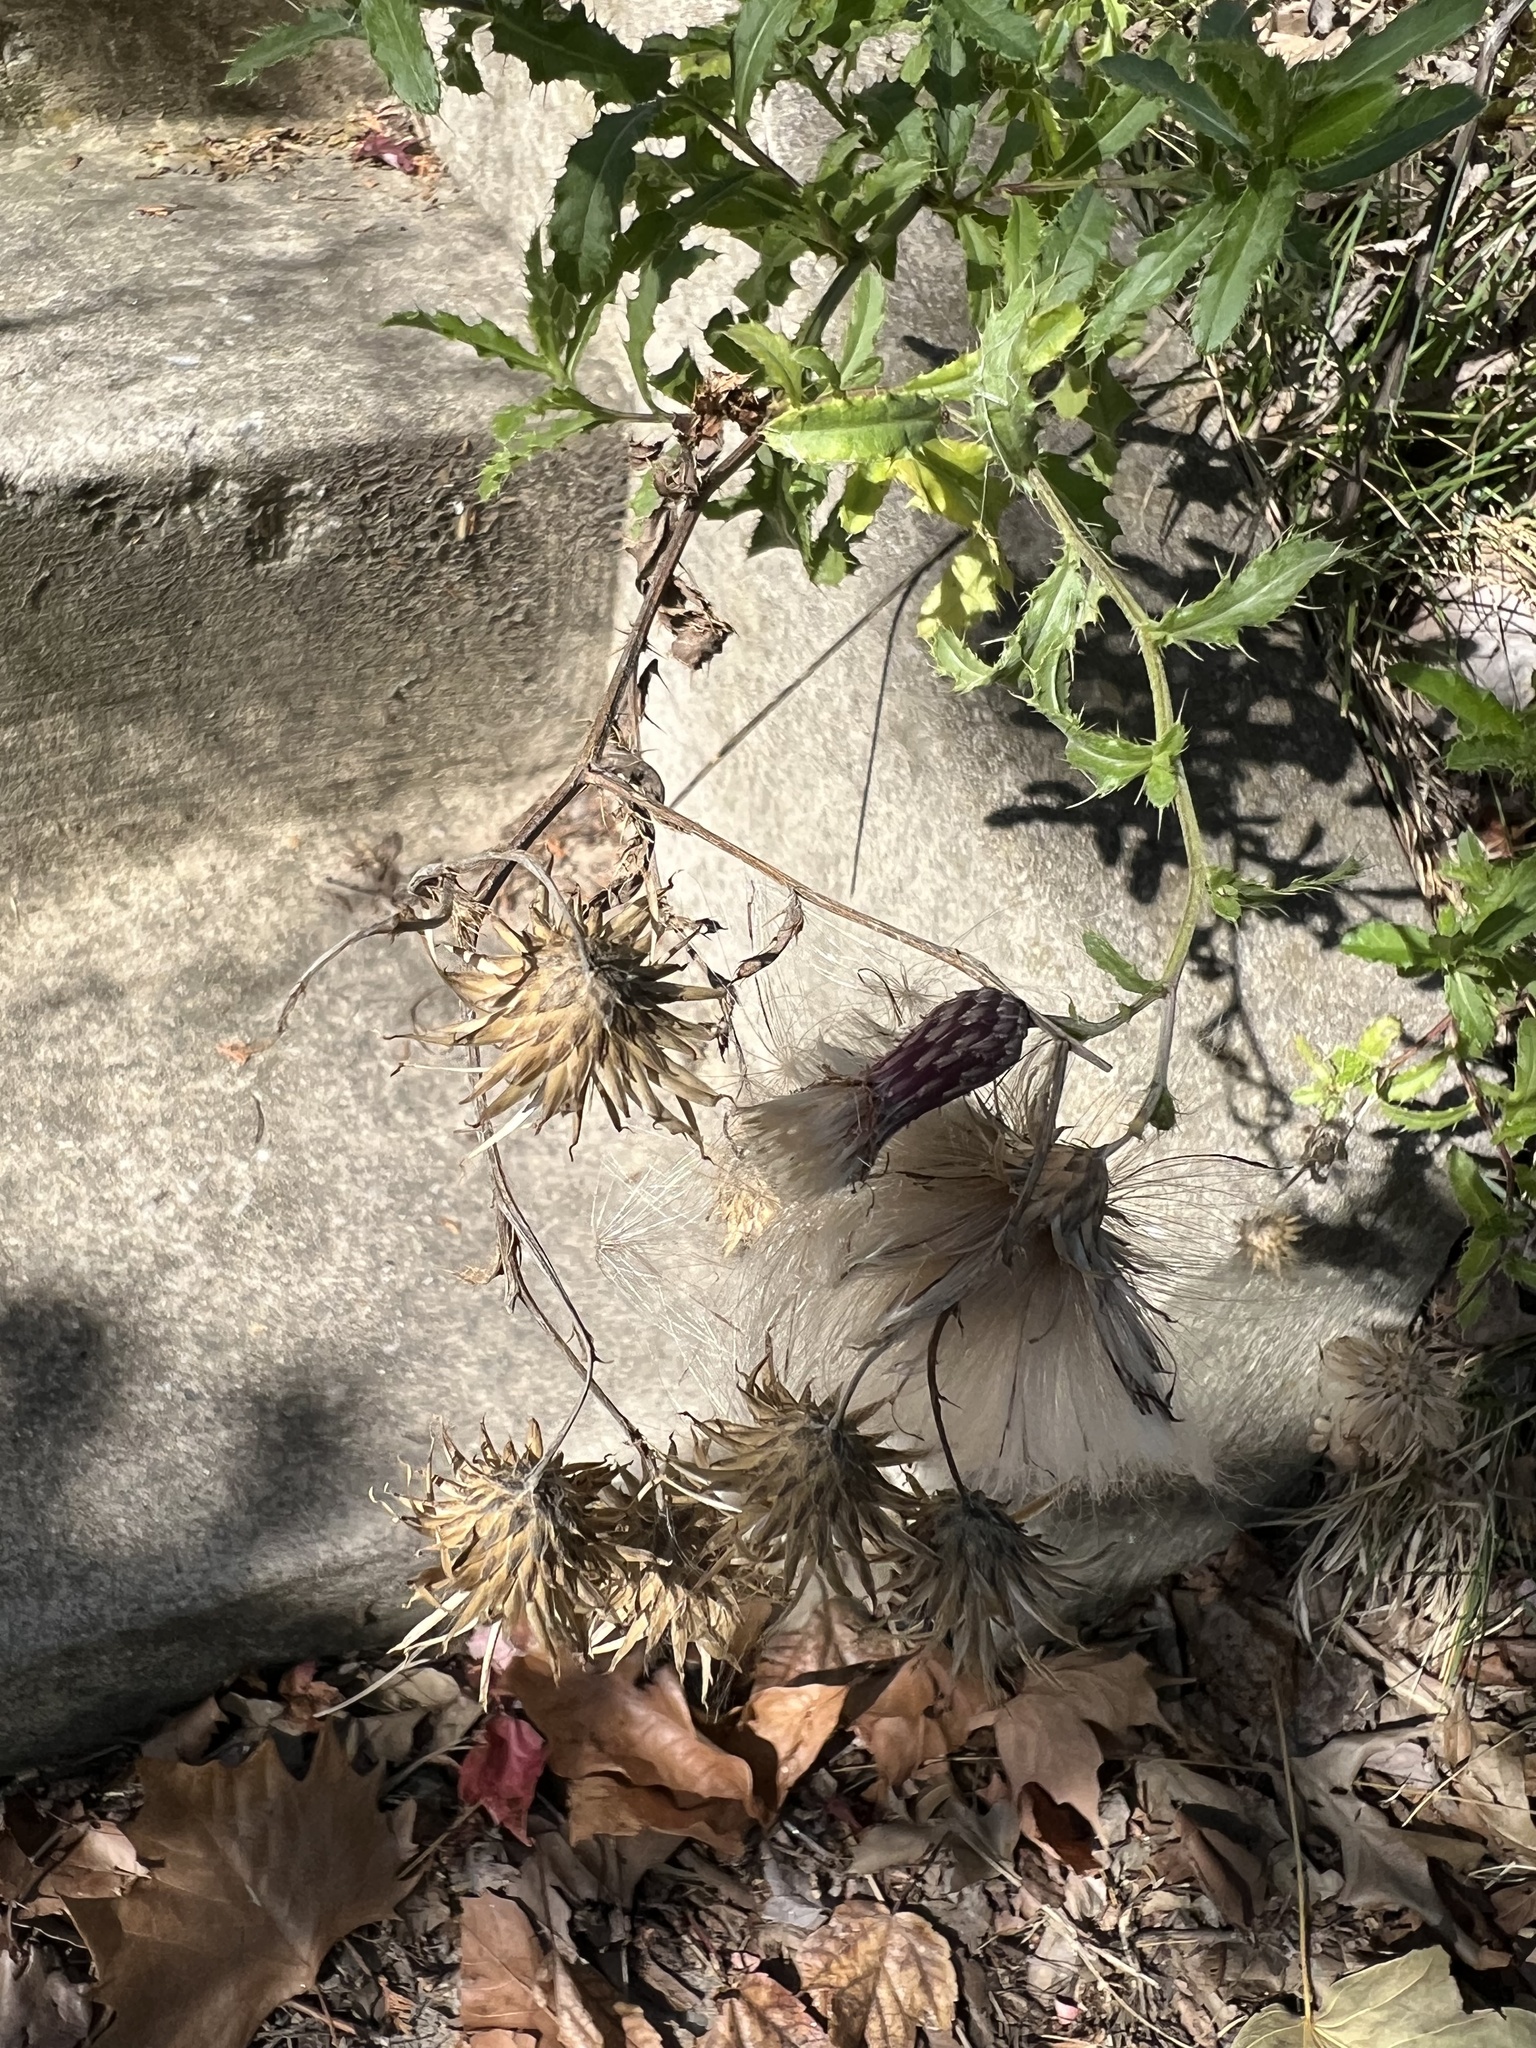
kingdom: Plantae
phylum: Tracheophyta
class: Magnoliopsida
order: Asterales
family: Asteraceae
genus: Cirsium
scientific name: Cirsium arvense
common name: Creeping thistle
